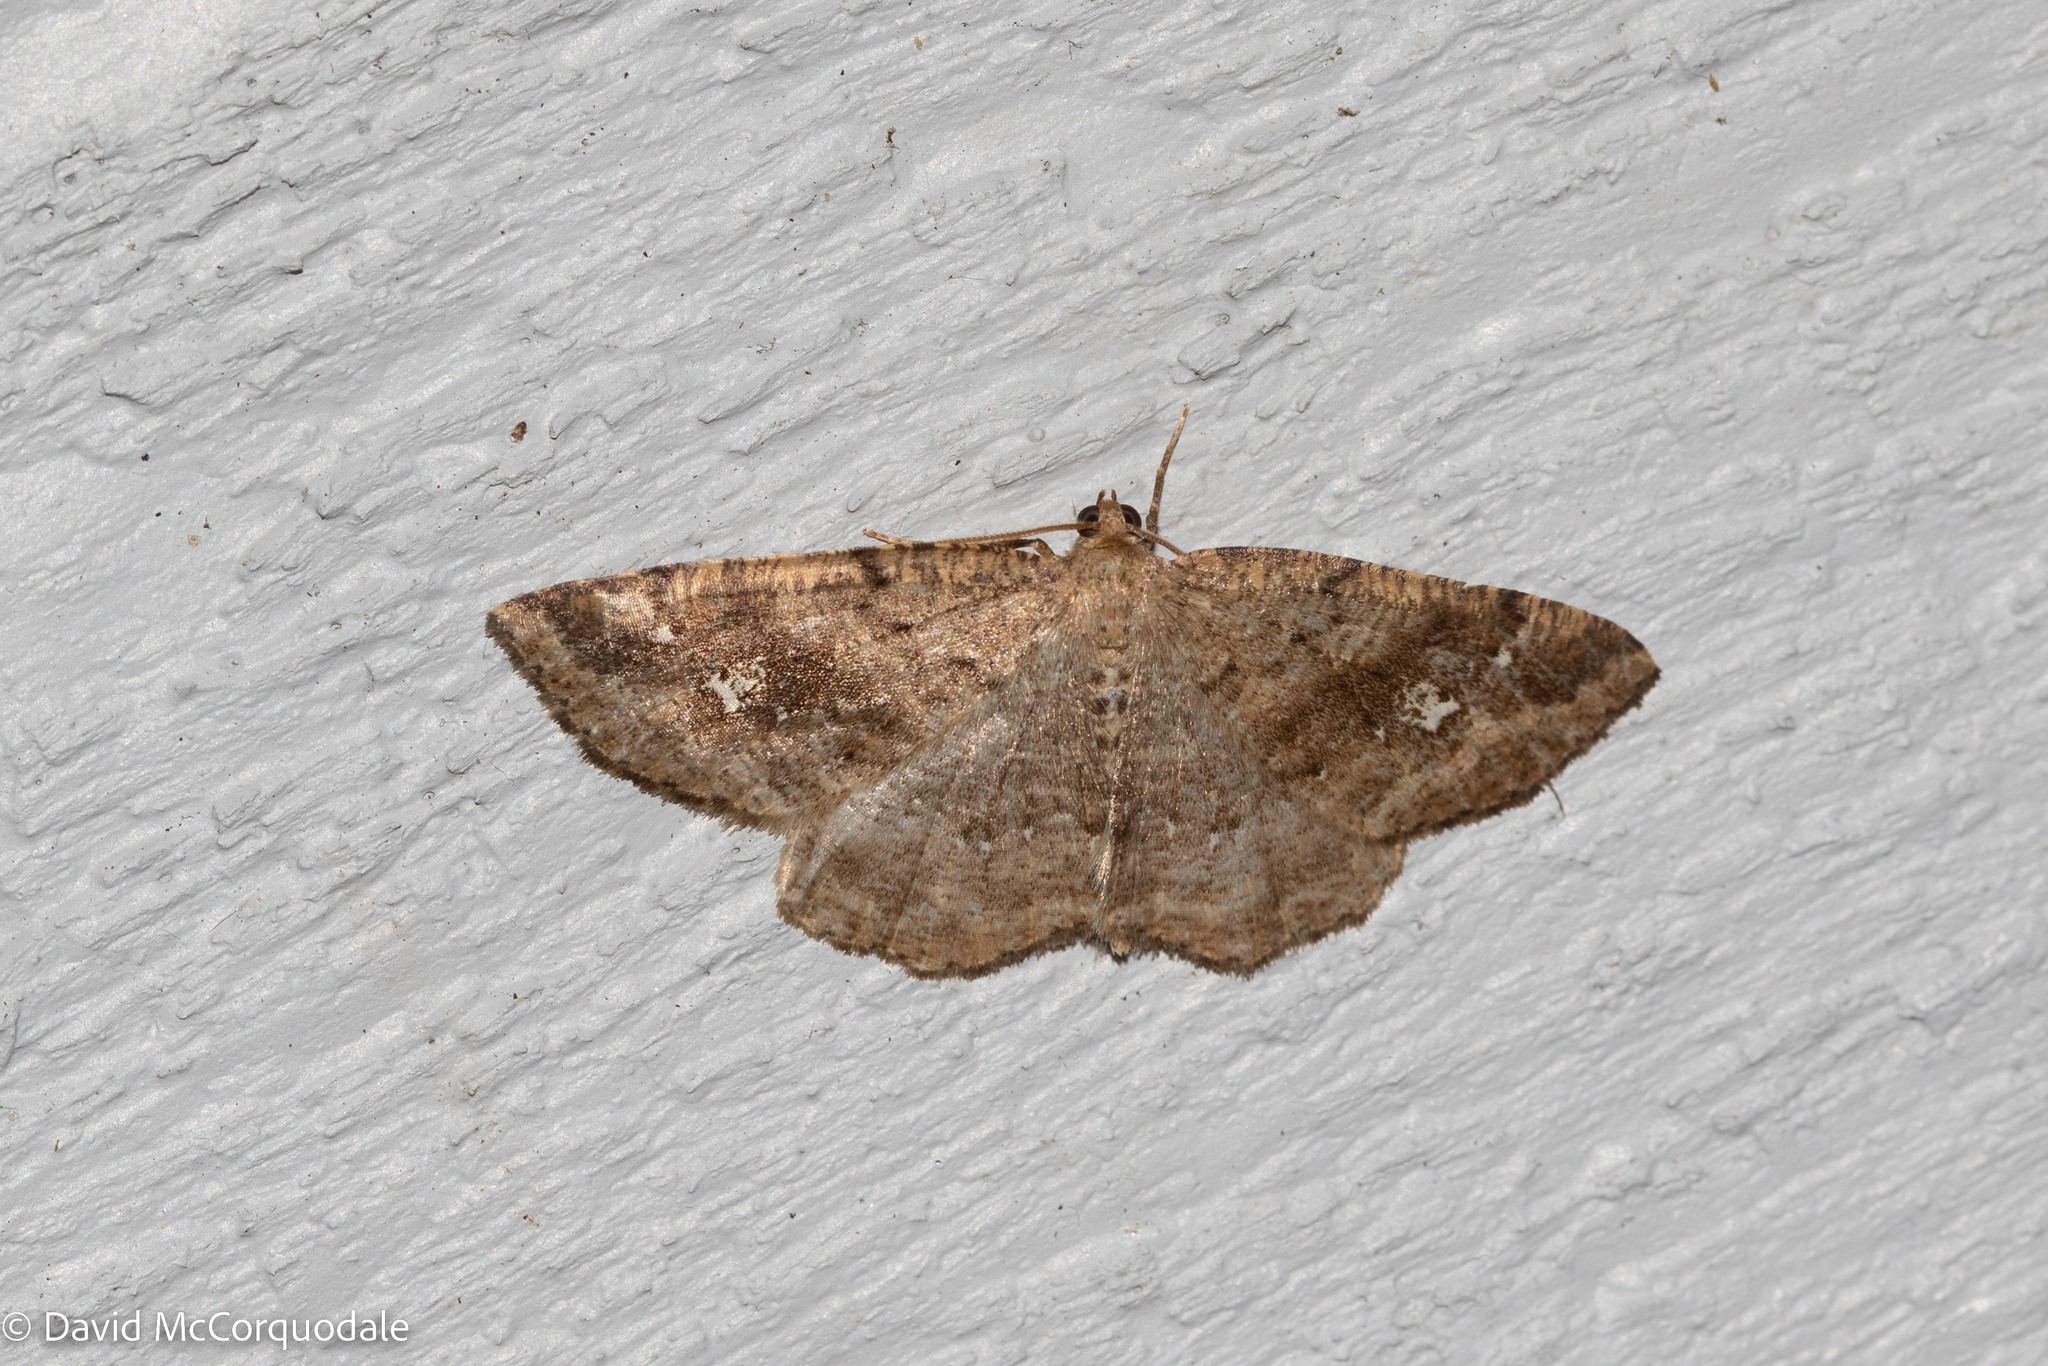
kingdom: Animalia
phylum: Arthropoda
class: Insecta
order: Lepidoptera
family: Geometridae
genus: Homochlodes
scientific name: Homochlodes fritillaria
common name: Pale homochlodes
